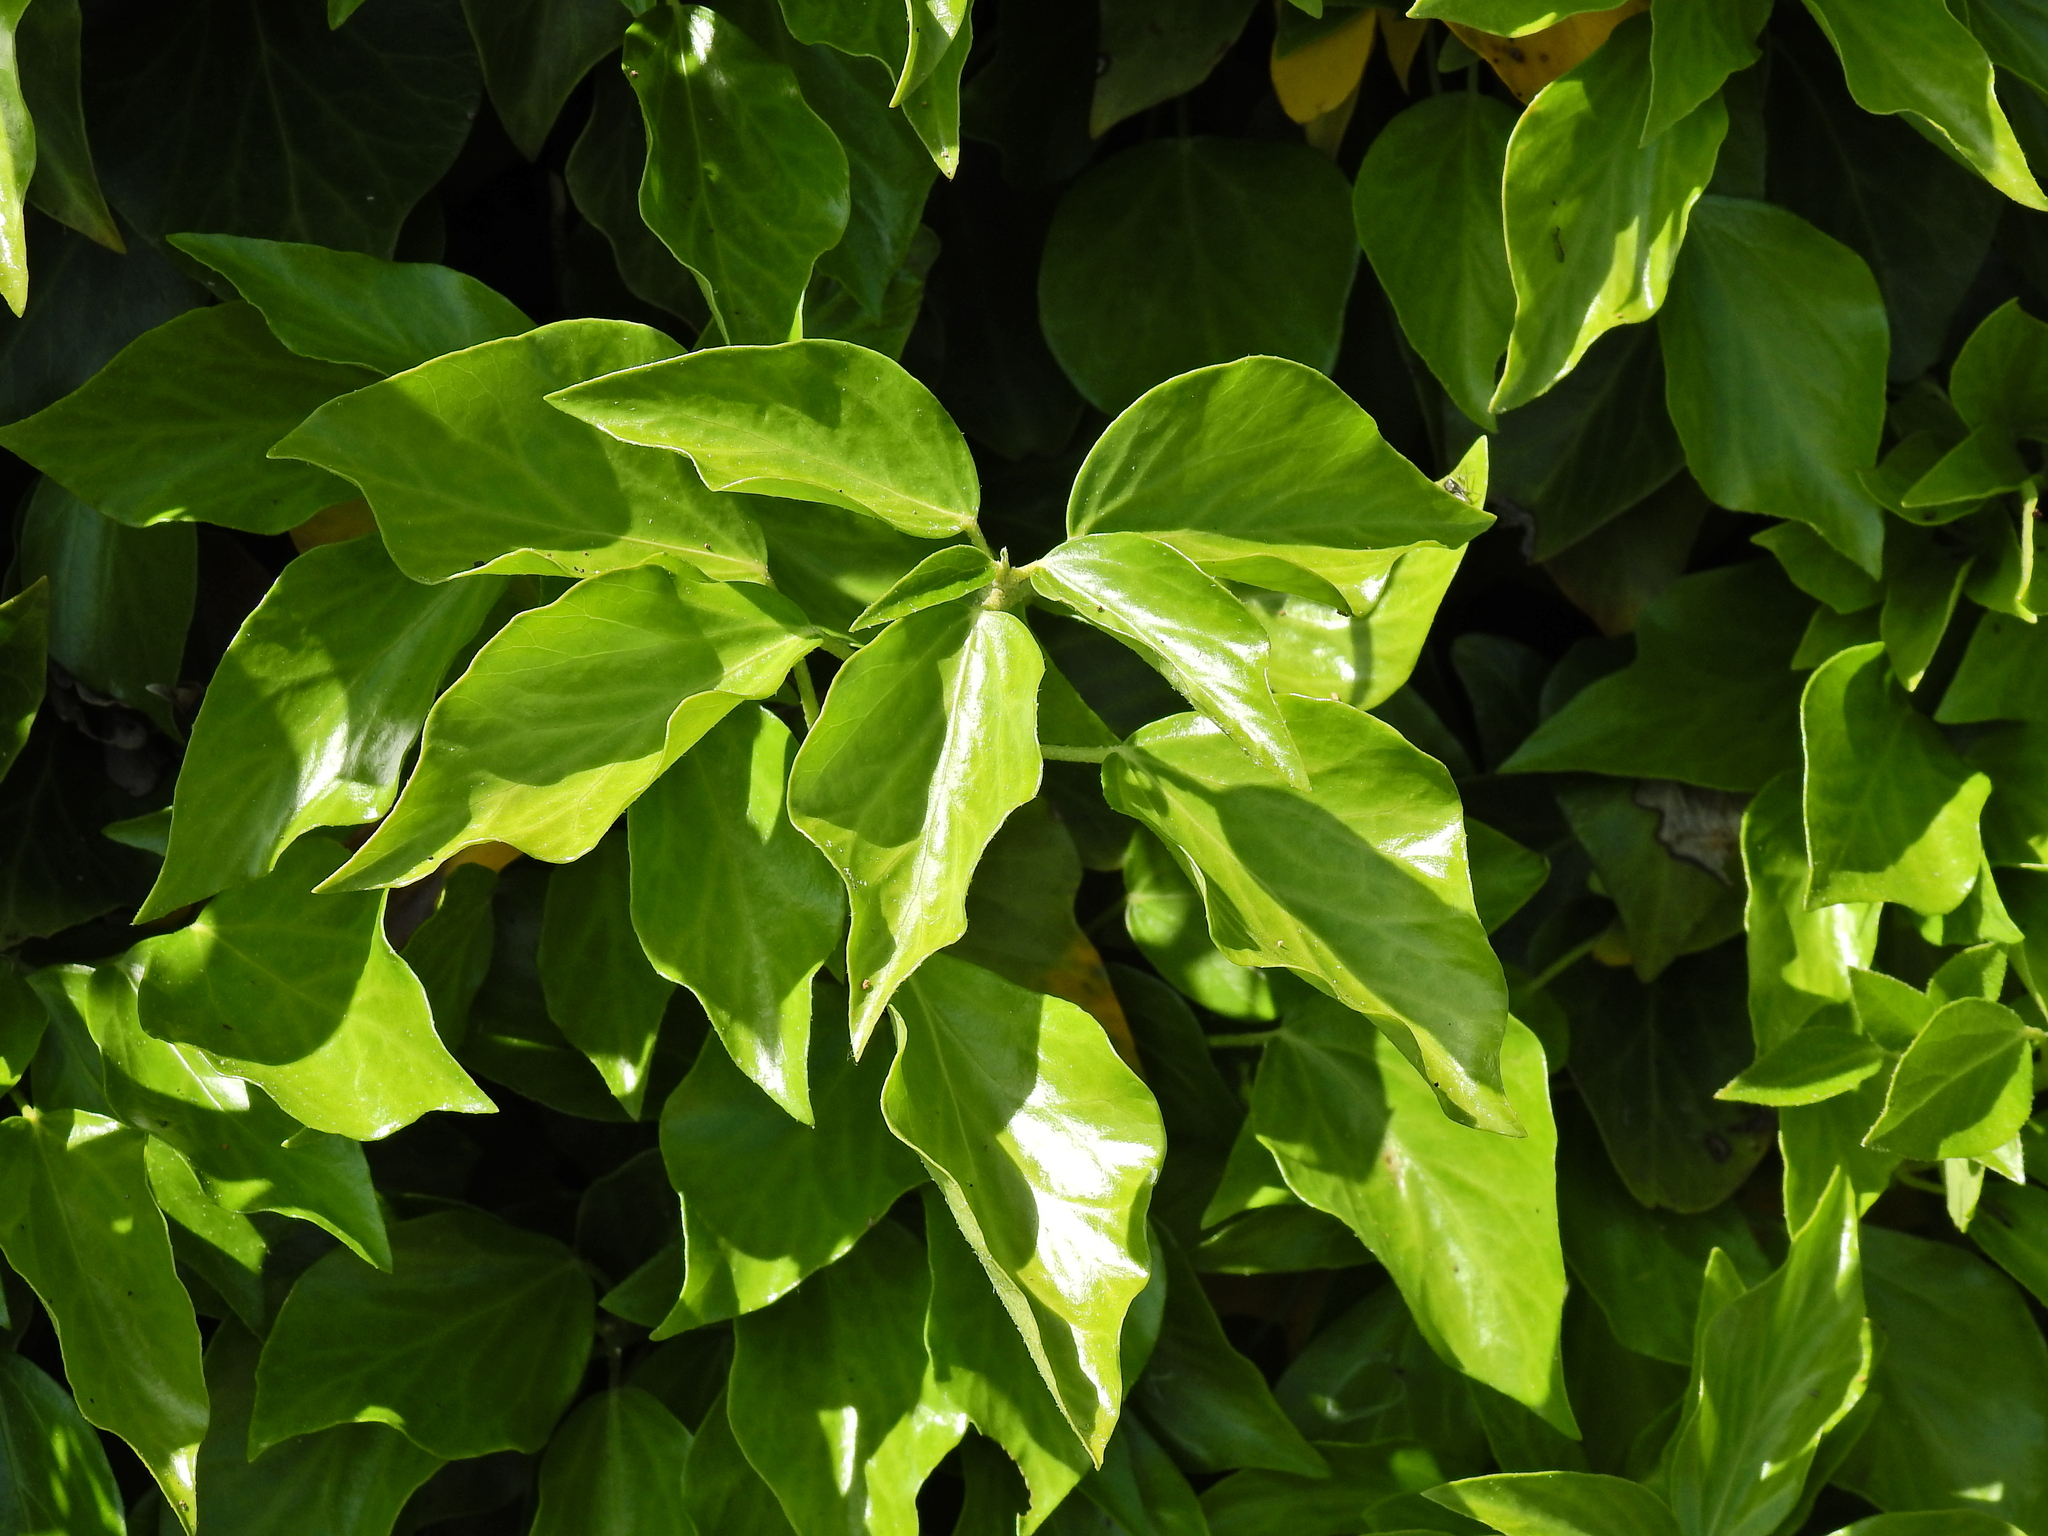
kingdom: Plantae
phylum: Tracheophyta
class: Magnoliopsida
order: Apiales
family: Araliaceae
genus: Hedera
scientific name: Hedera helix
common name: Ivy
